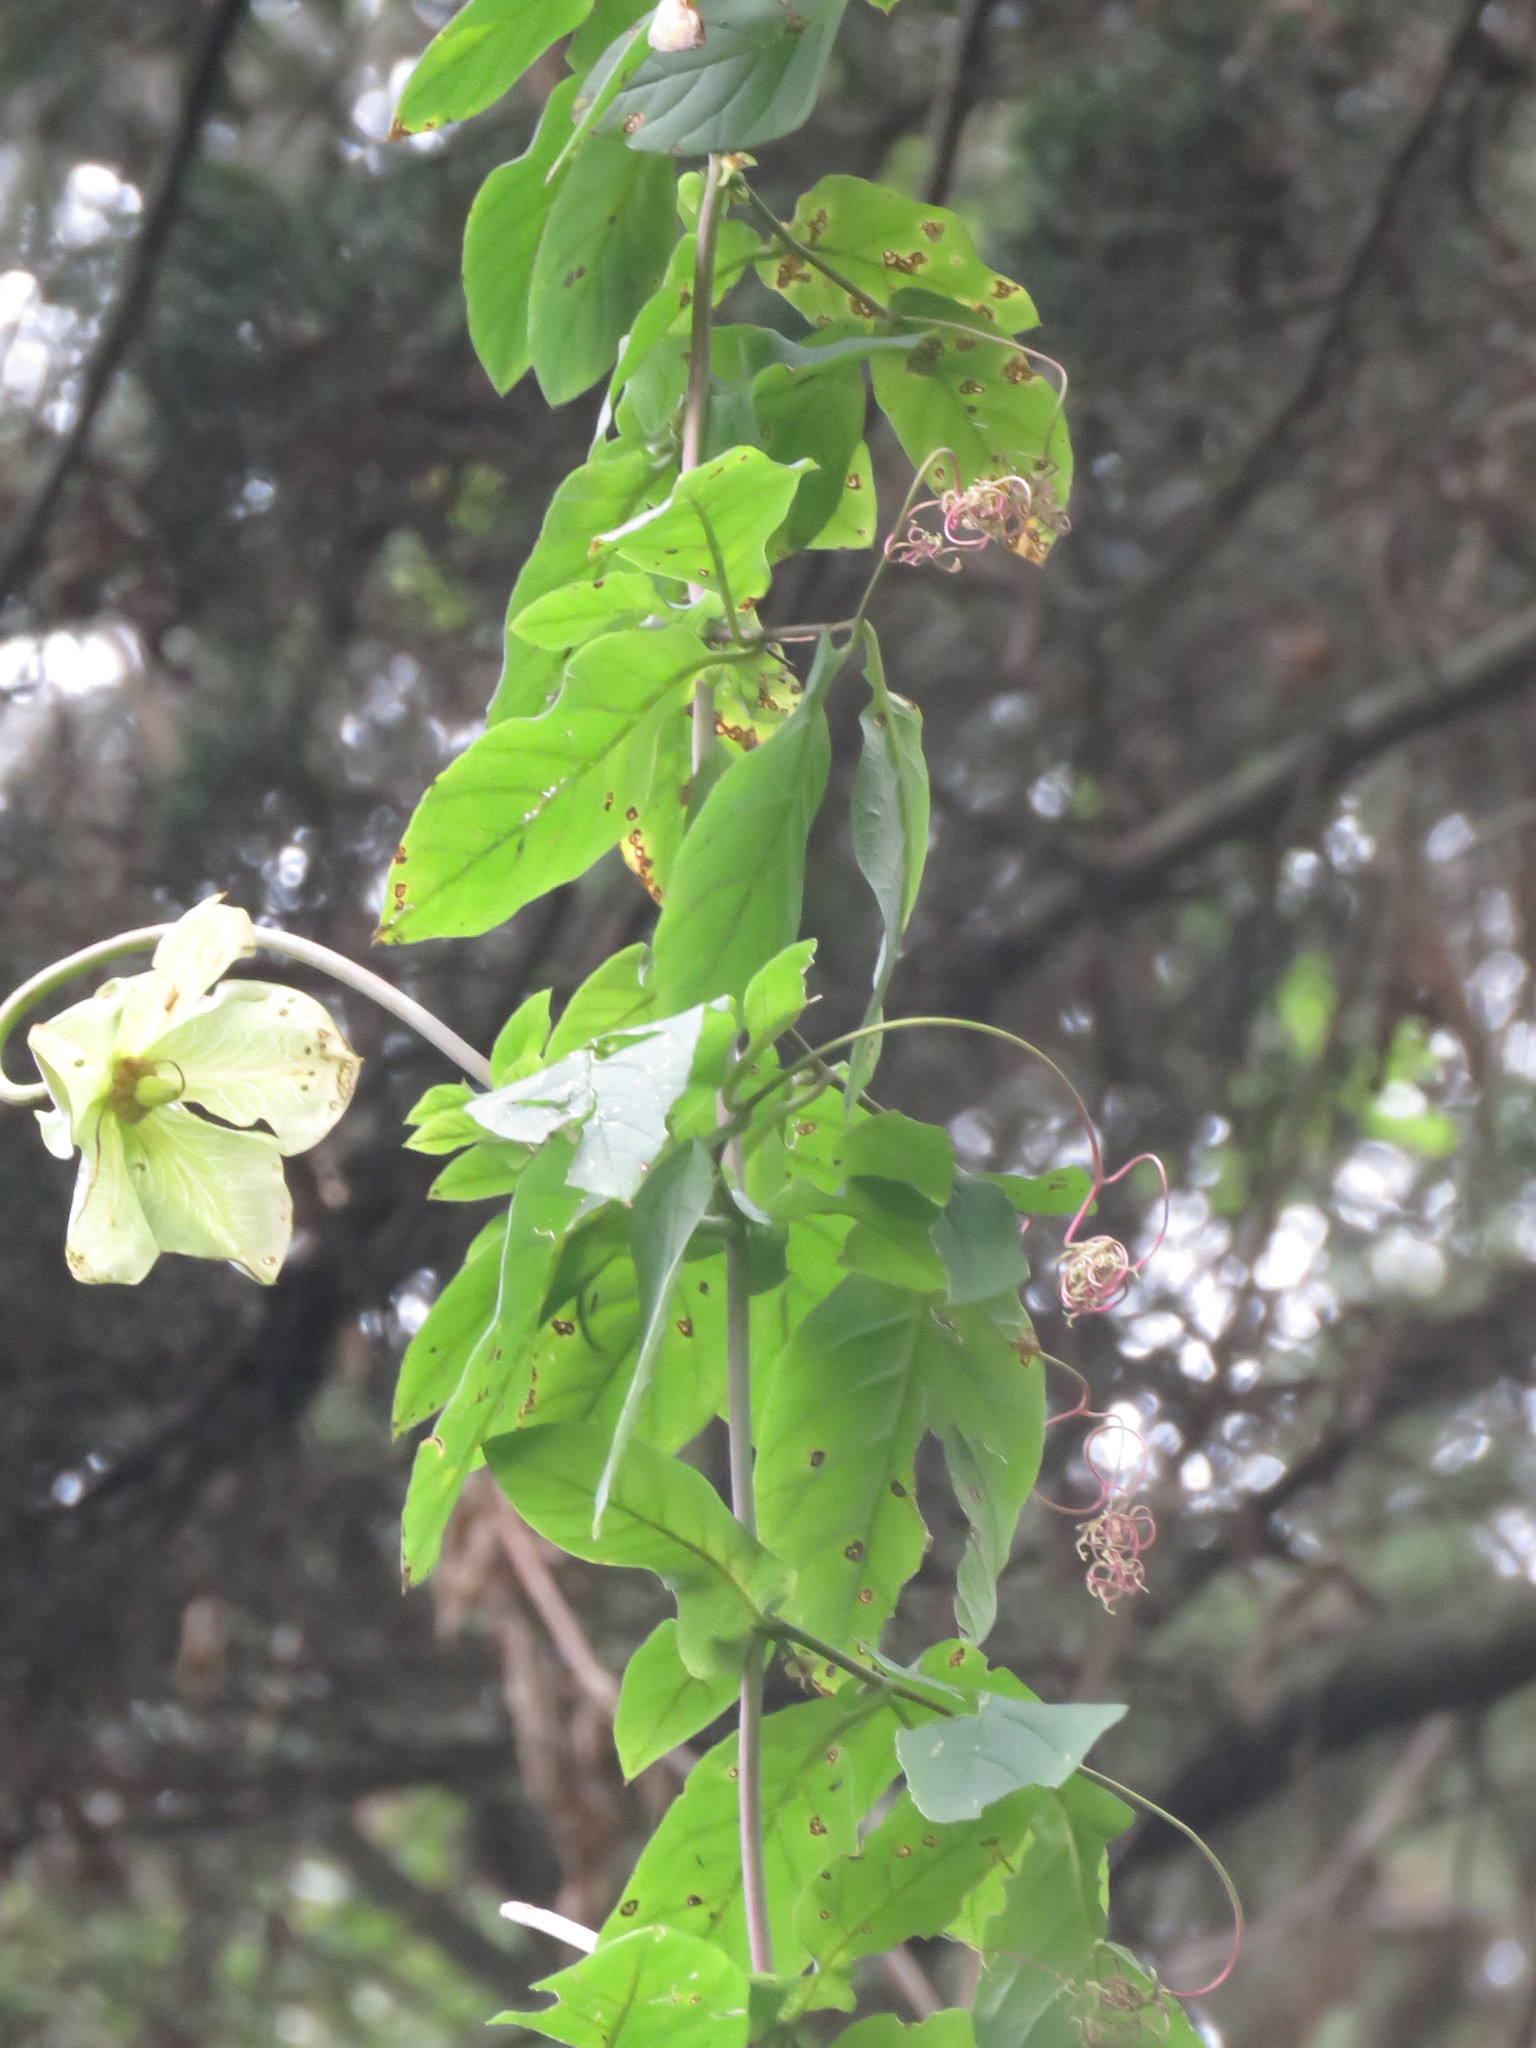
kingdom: Plantae
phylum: Tracheophyta
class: Magnoliopsida
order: Ericales
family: Polemoniaceae
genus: Cobaea
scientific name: Cobaea scandens
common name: Cup-and-saucer-vine
